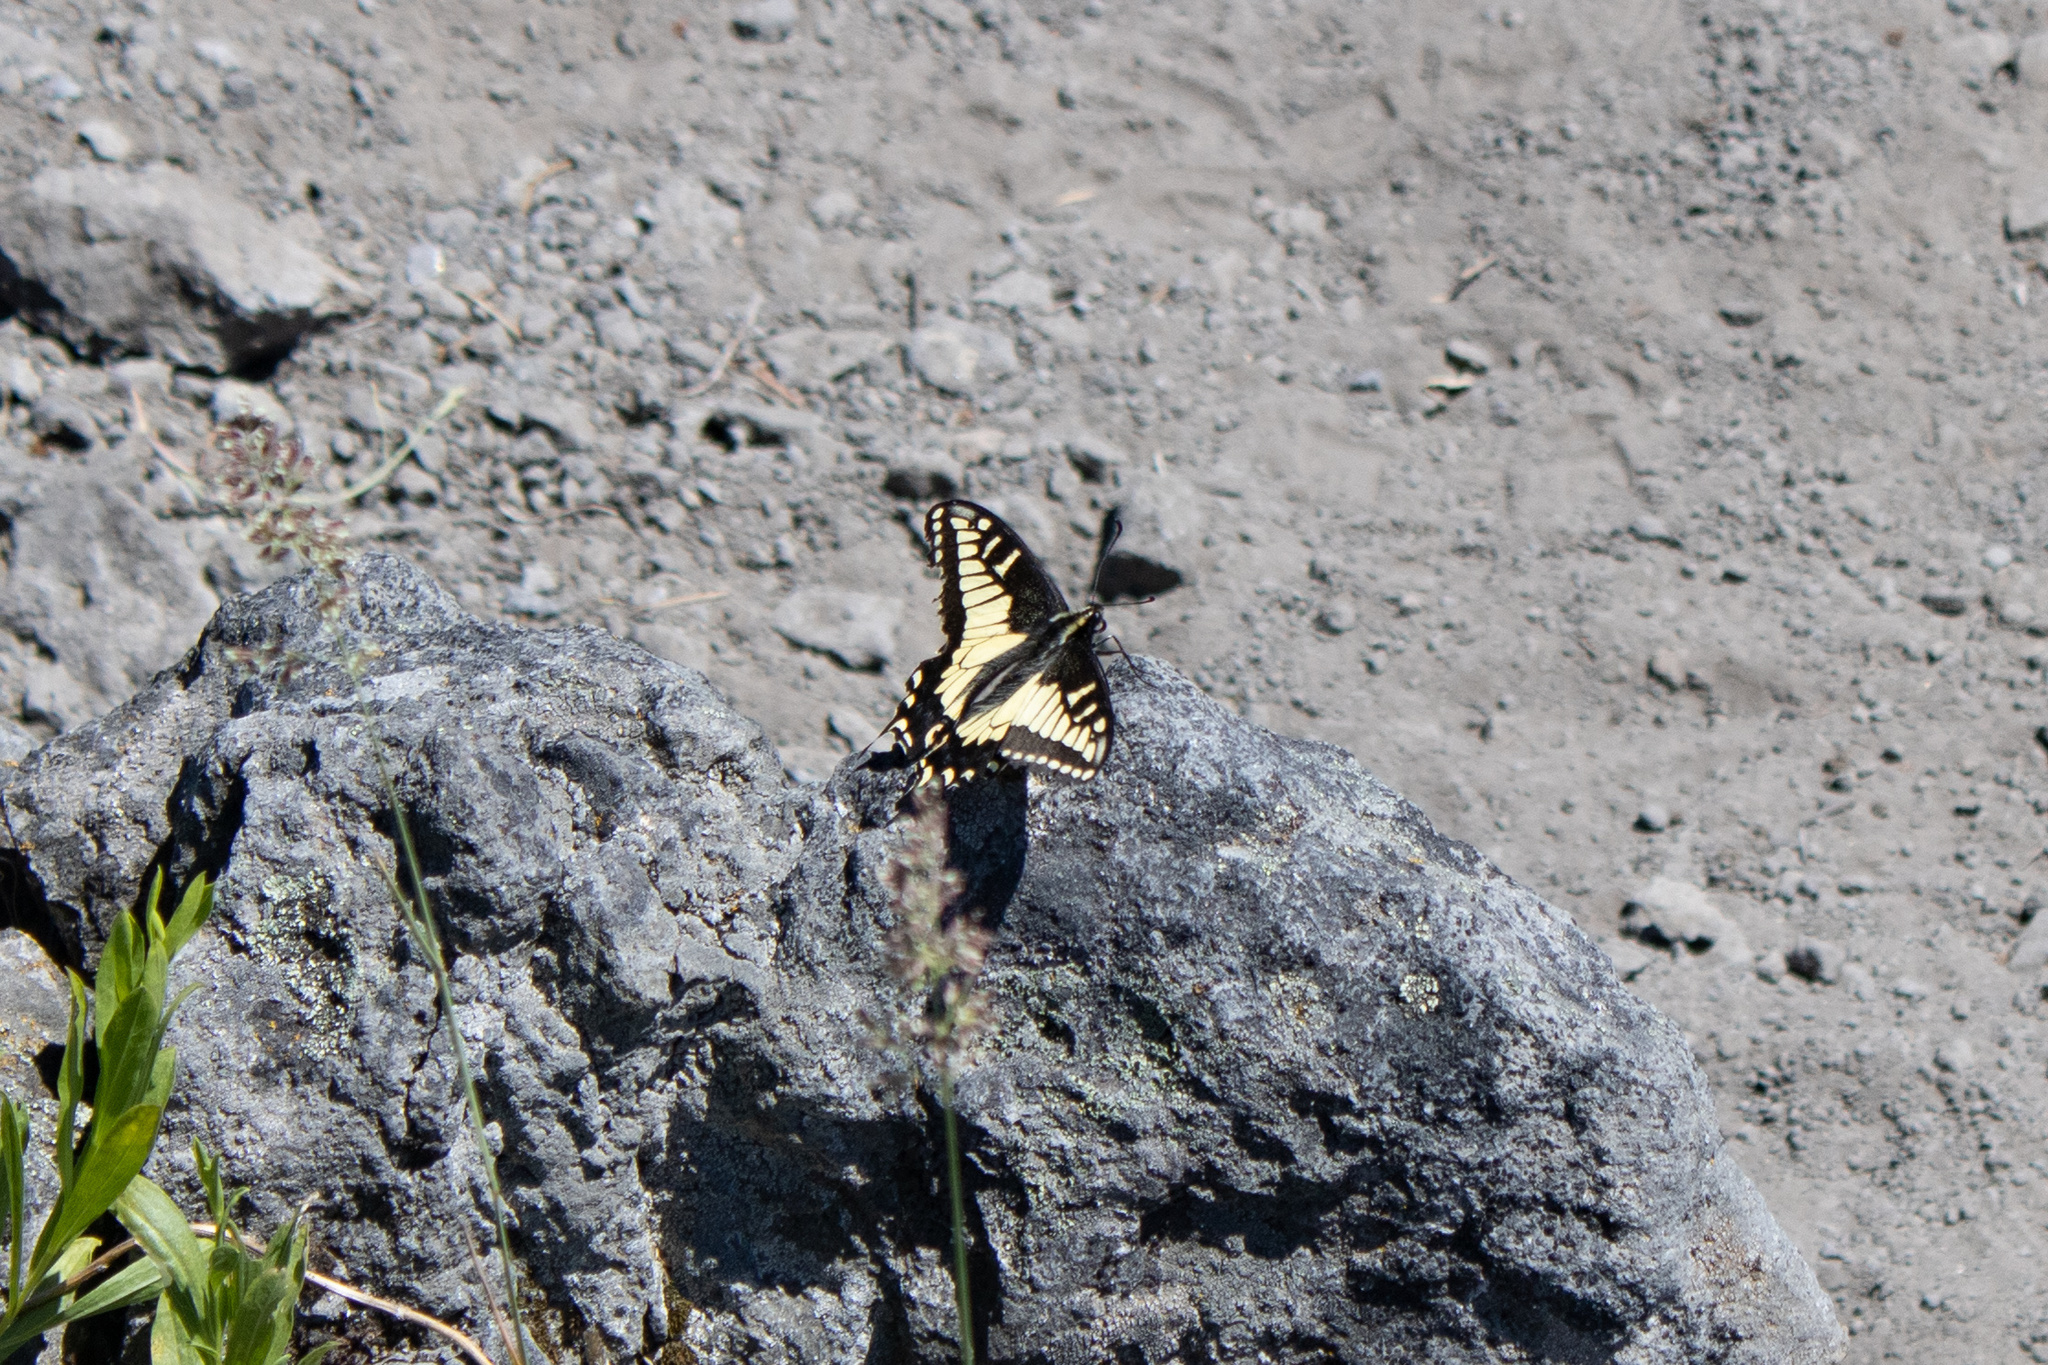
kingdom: Animalia
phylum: Arthropoda
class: Insecta
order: Lepidoptera
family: Papilionidae
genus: Papilio
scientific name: Papilio zelicaon
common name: Anise swallowtail
